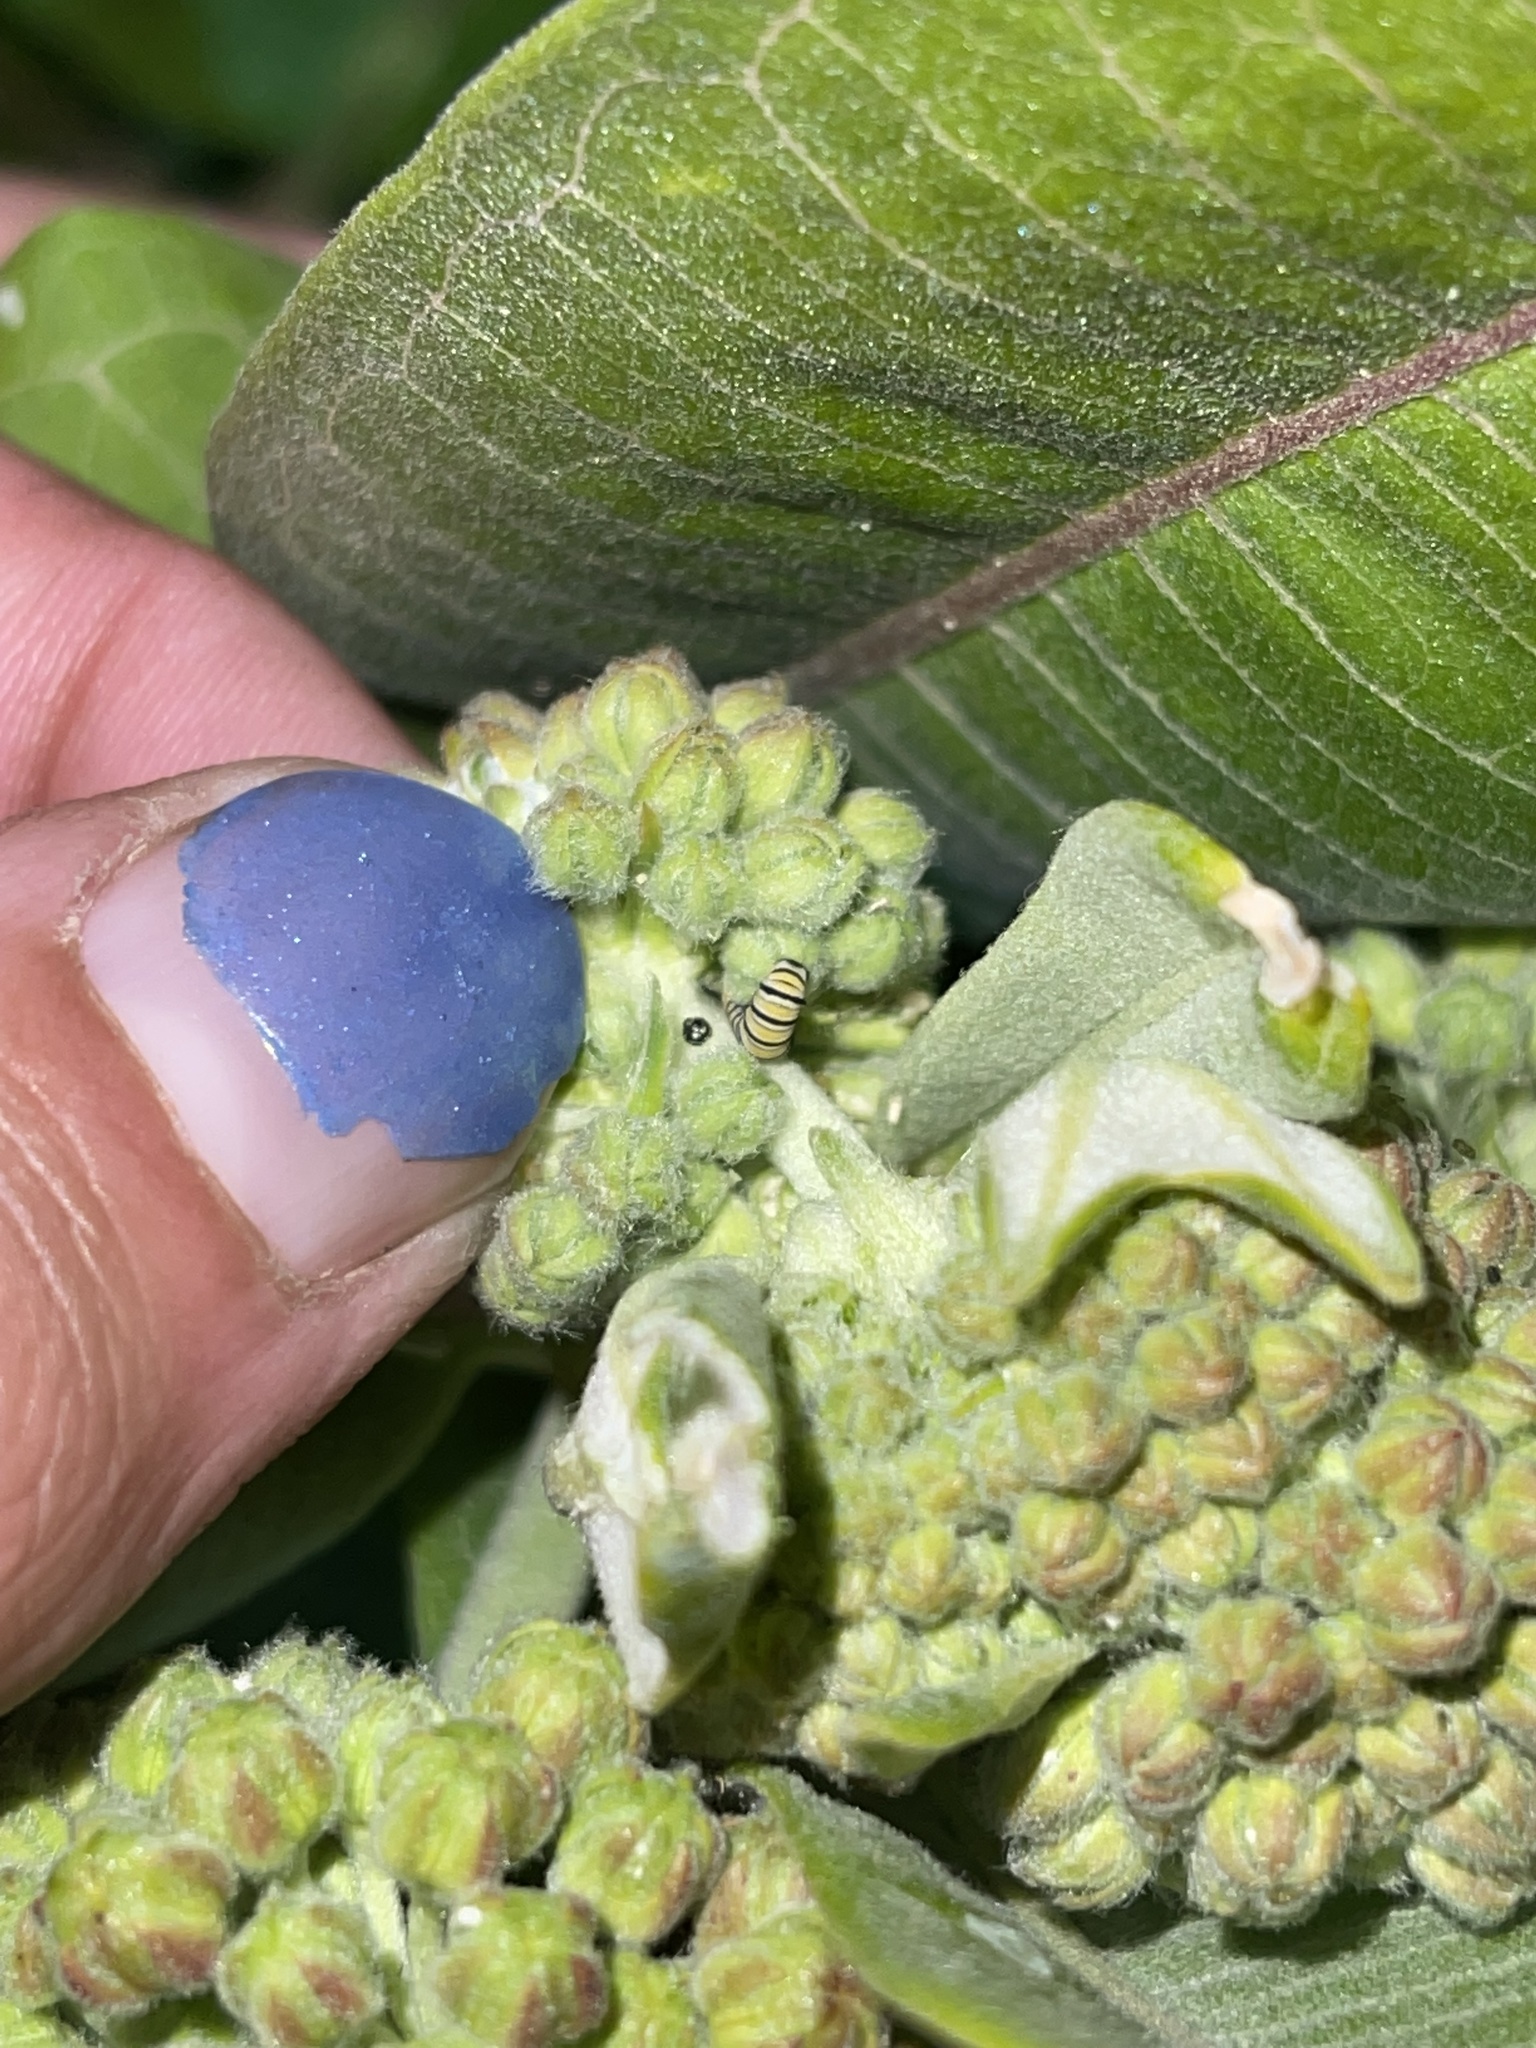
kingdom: Animalia
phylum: Arthropoda
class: Insecta
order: Lepidoptera
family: Nymphalidae
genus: Danaus
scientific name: Danaus plexippus
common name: Monarch
